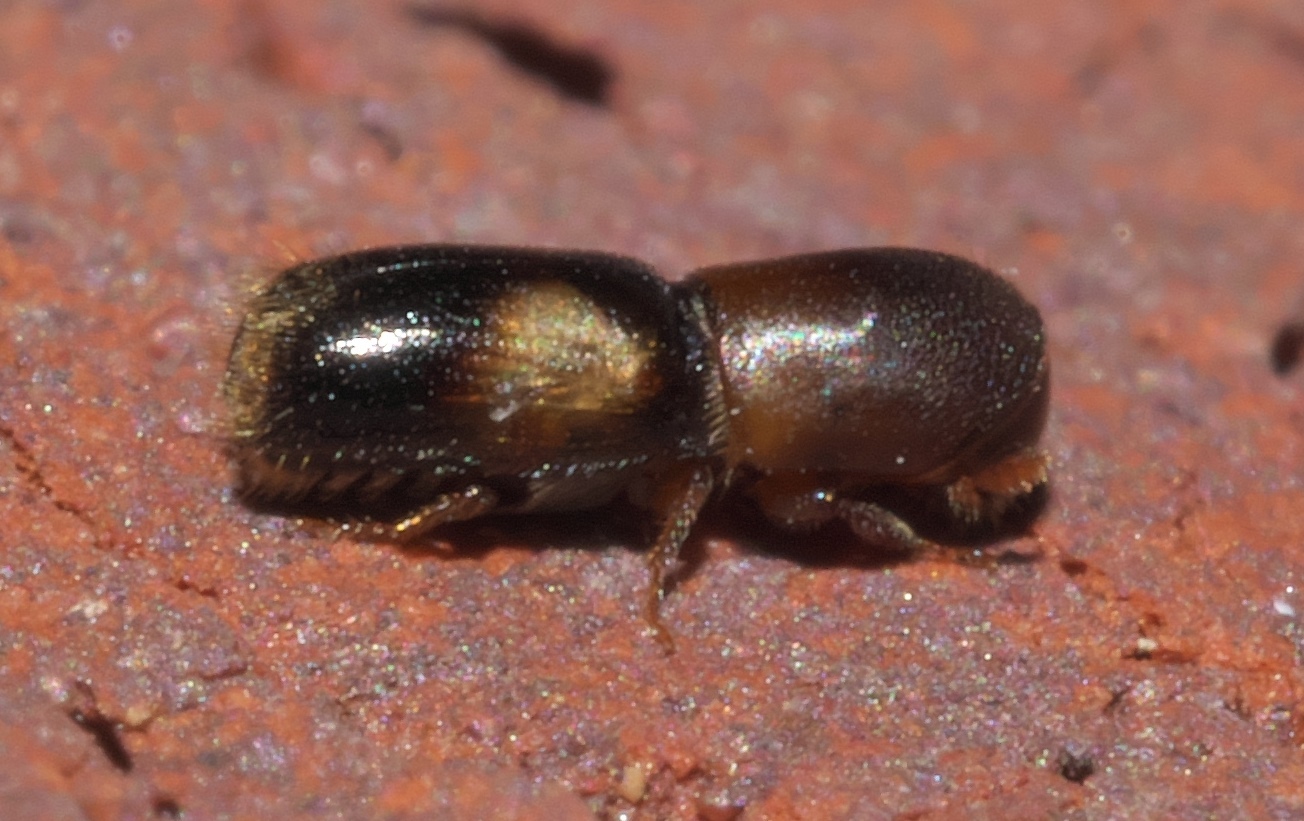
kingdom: Animalia
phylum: Arthropoda
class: Insecta
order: Coleoptera
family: Curculionidae
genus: Monarthrum
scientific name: Monarthrum fasciatum
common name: Yellow-banded timber beetle
